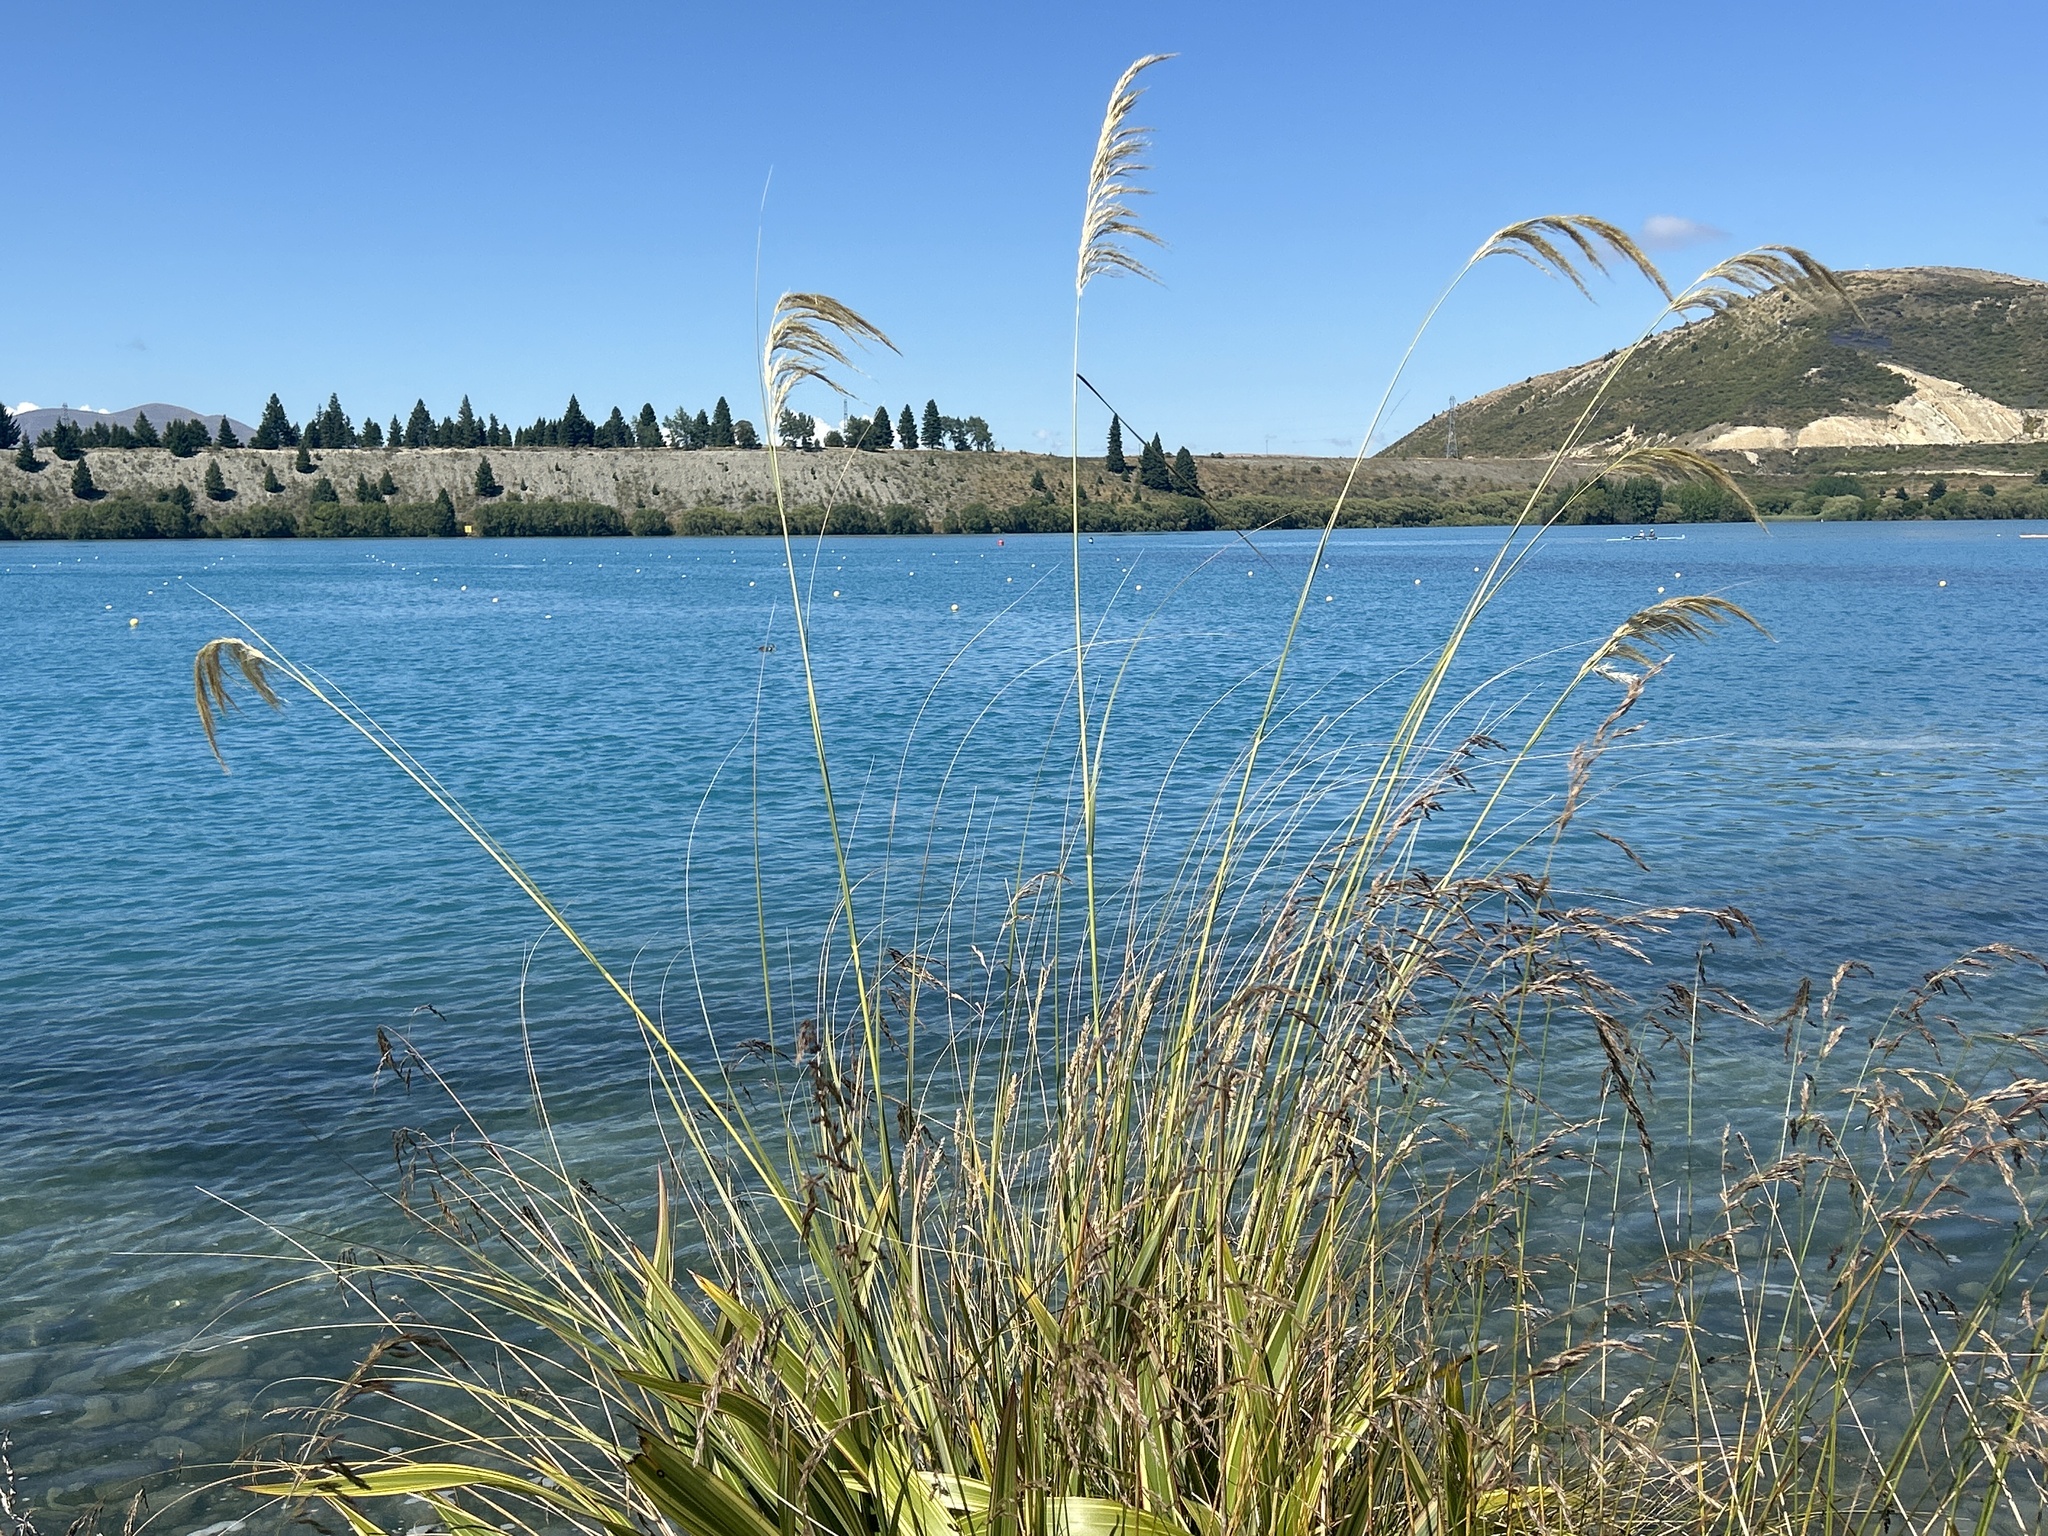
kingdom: Plantae
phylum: Tracheophyta
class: Liliopsida
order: Poales
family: Poaceae
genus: Austroderia
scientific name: Austroderia richardii
